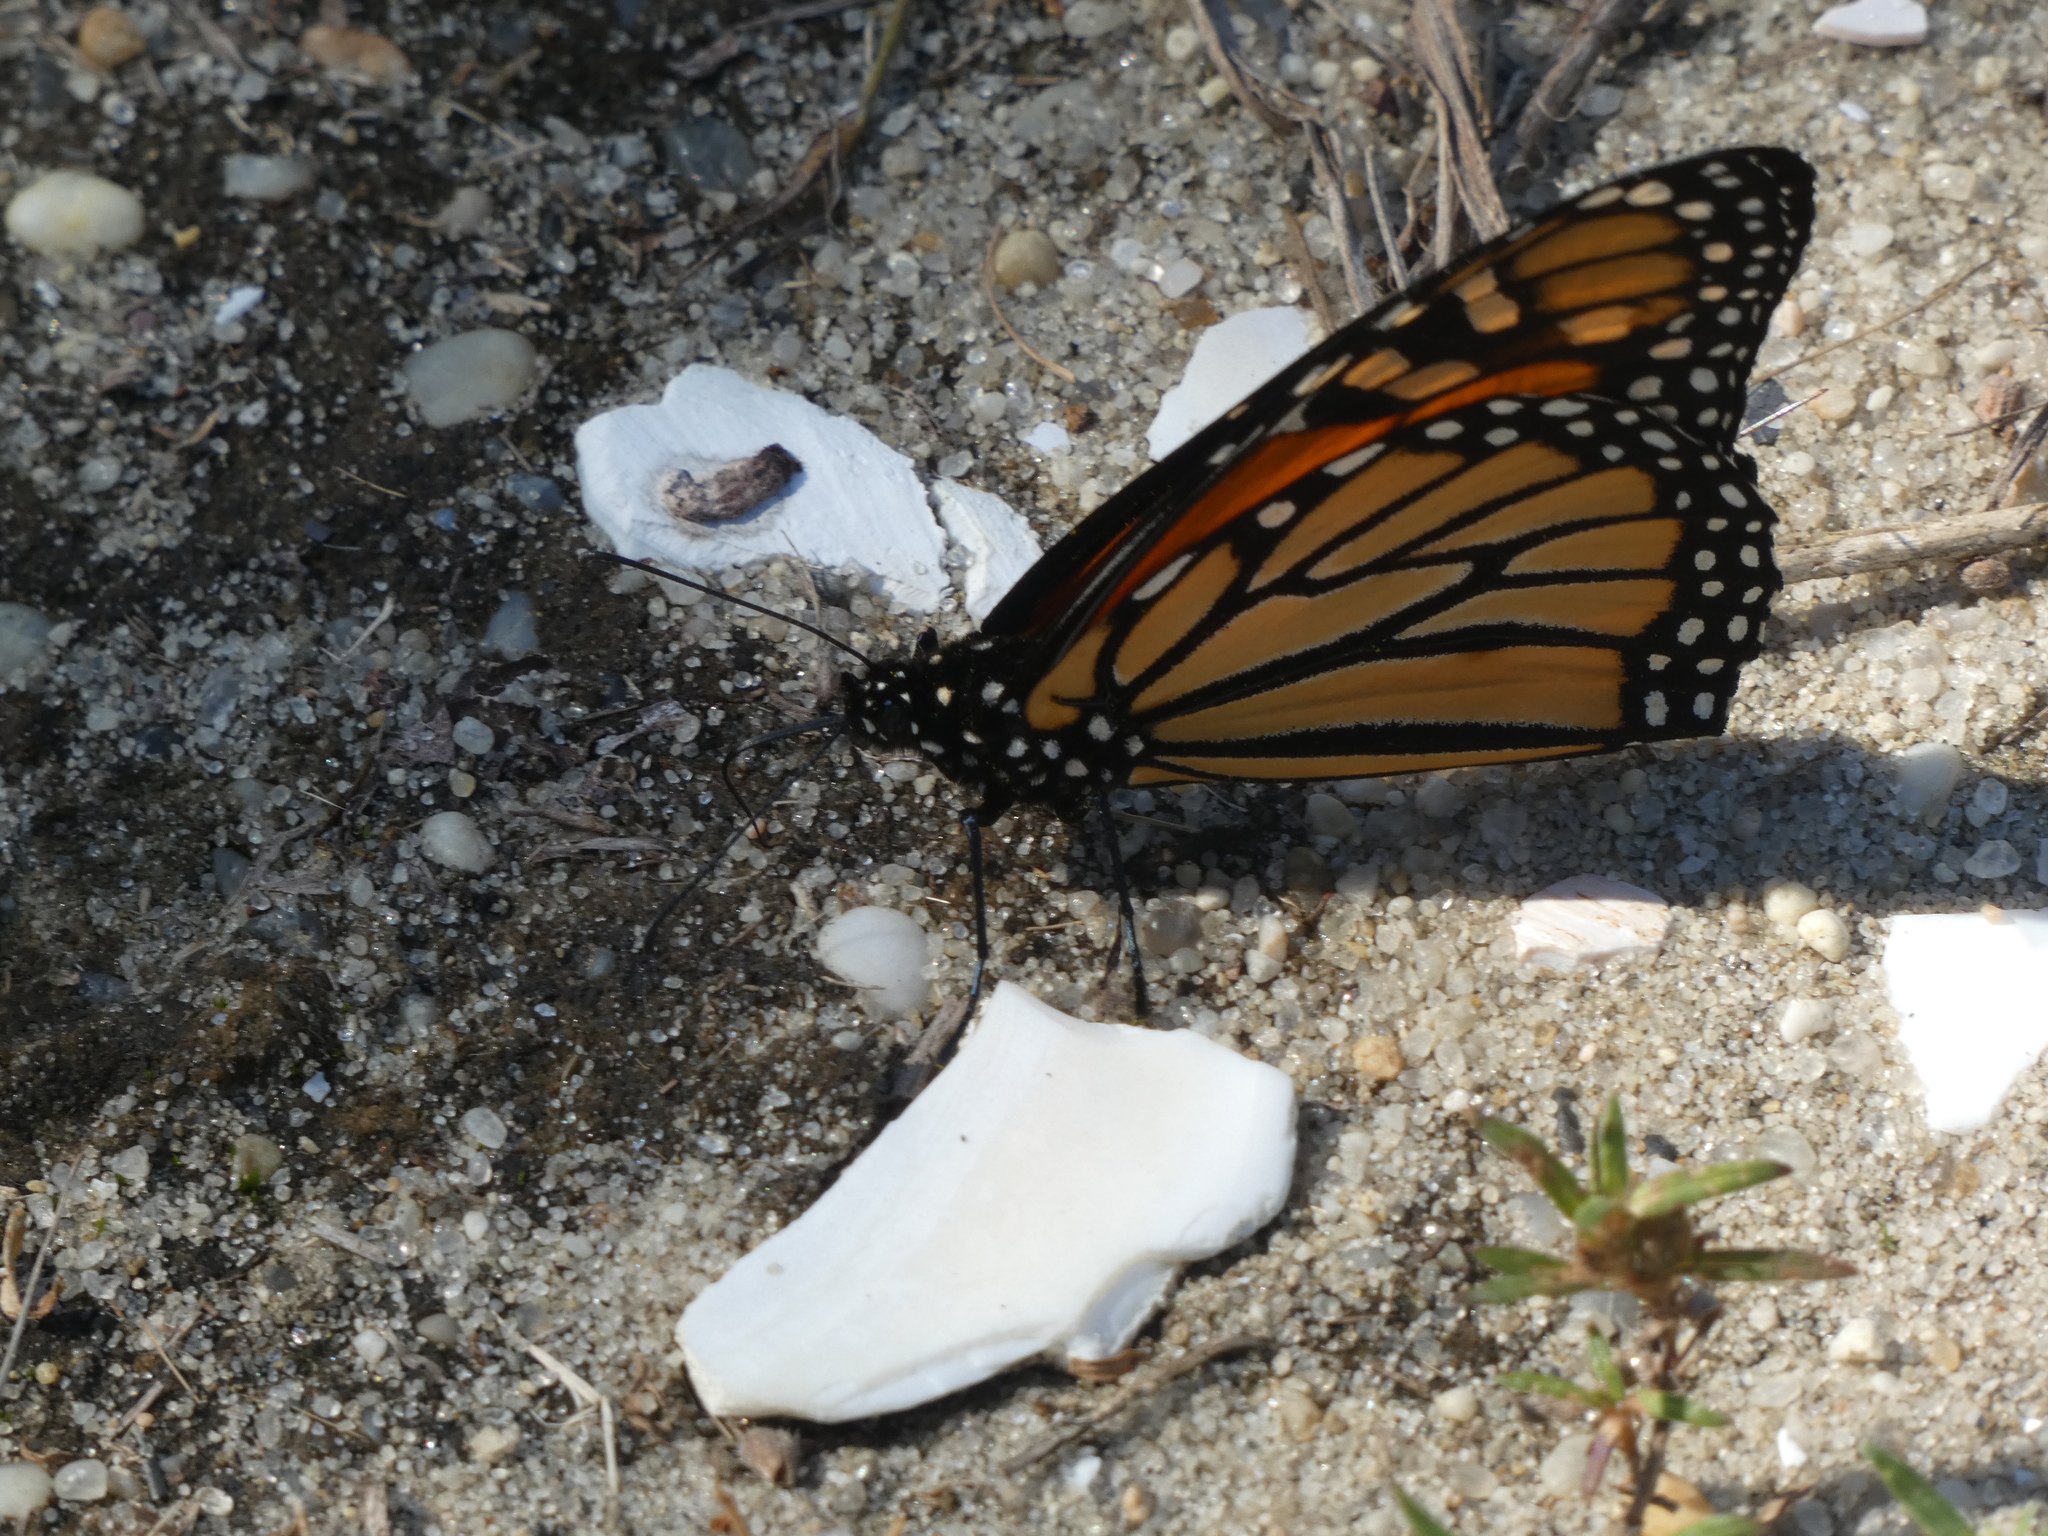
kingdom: Animalia
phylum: Arthropoda
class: Insecta
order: Lepidoptera
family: Nymphalidae
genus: Danaus
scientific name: Danaus plexippus
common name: Monarch
